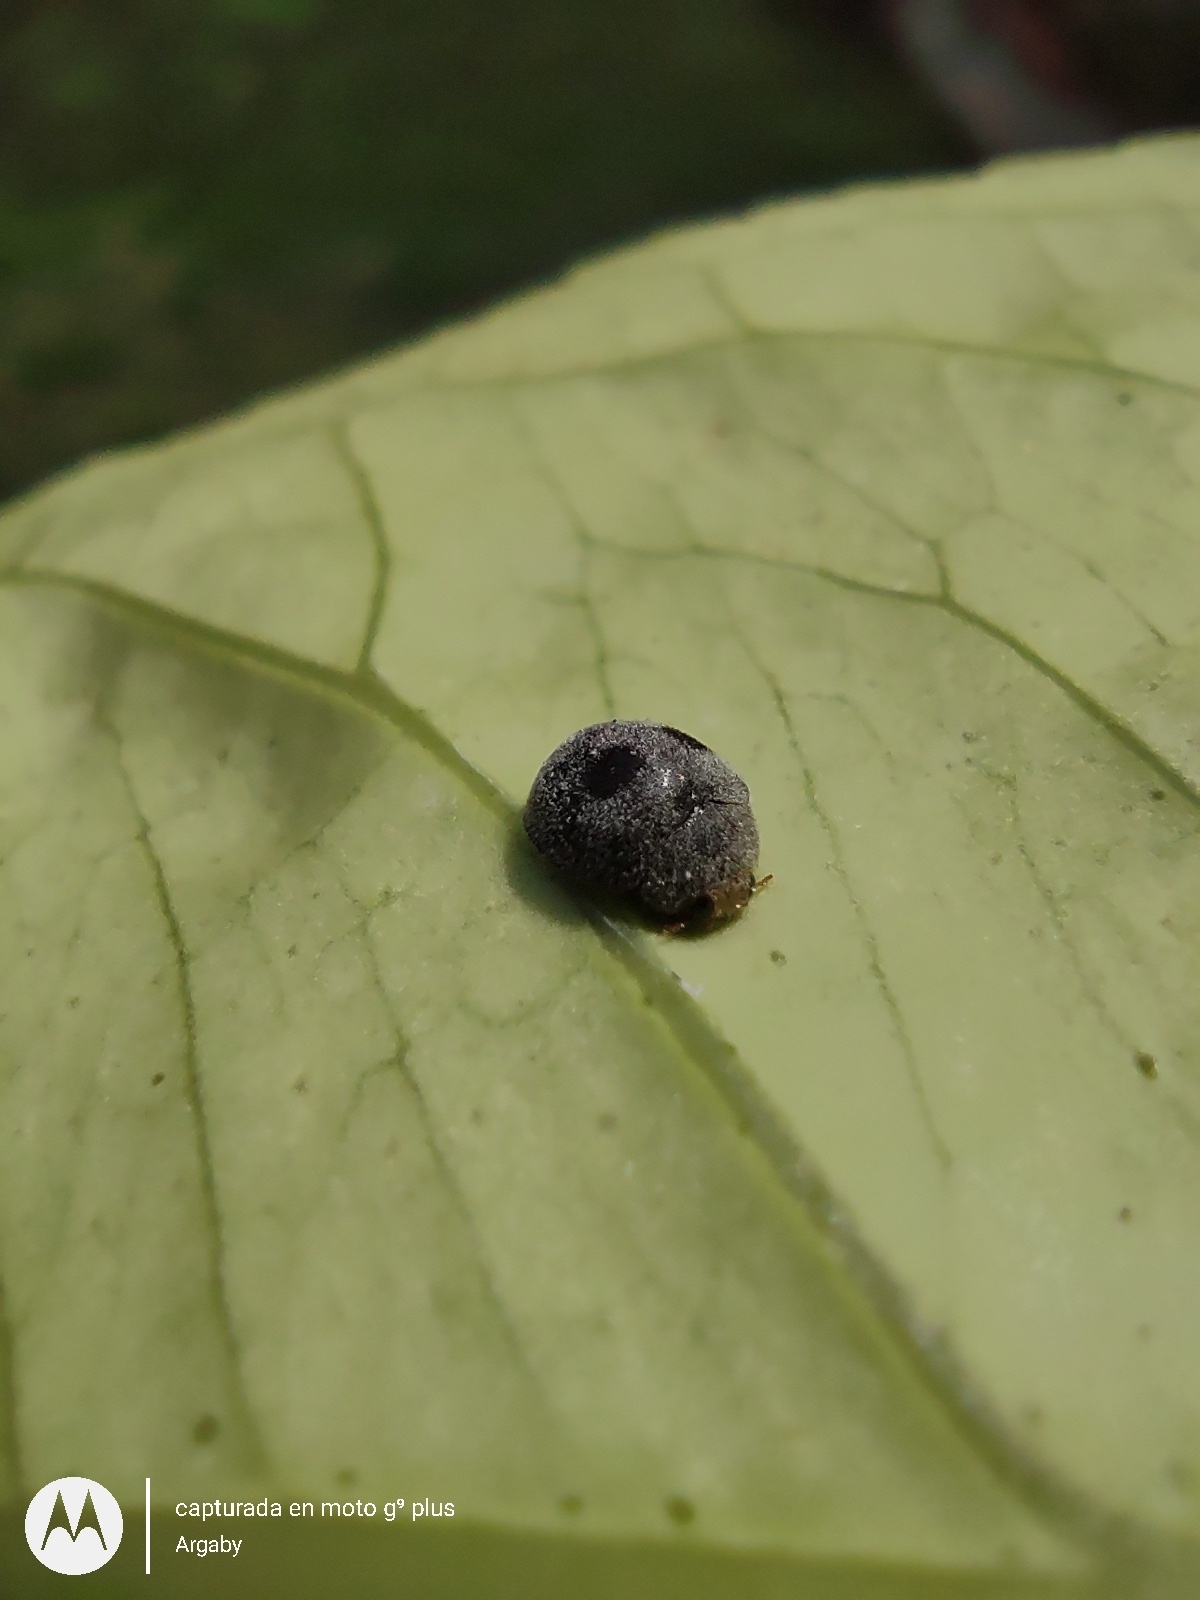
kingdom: Animalia
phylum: Arthropoda
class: Insecta
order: Coleoptera
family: Coccinellidae
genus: Azya
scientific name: Azya luteipes
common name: Ladybird beetle
